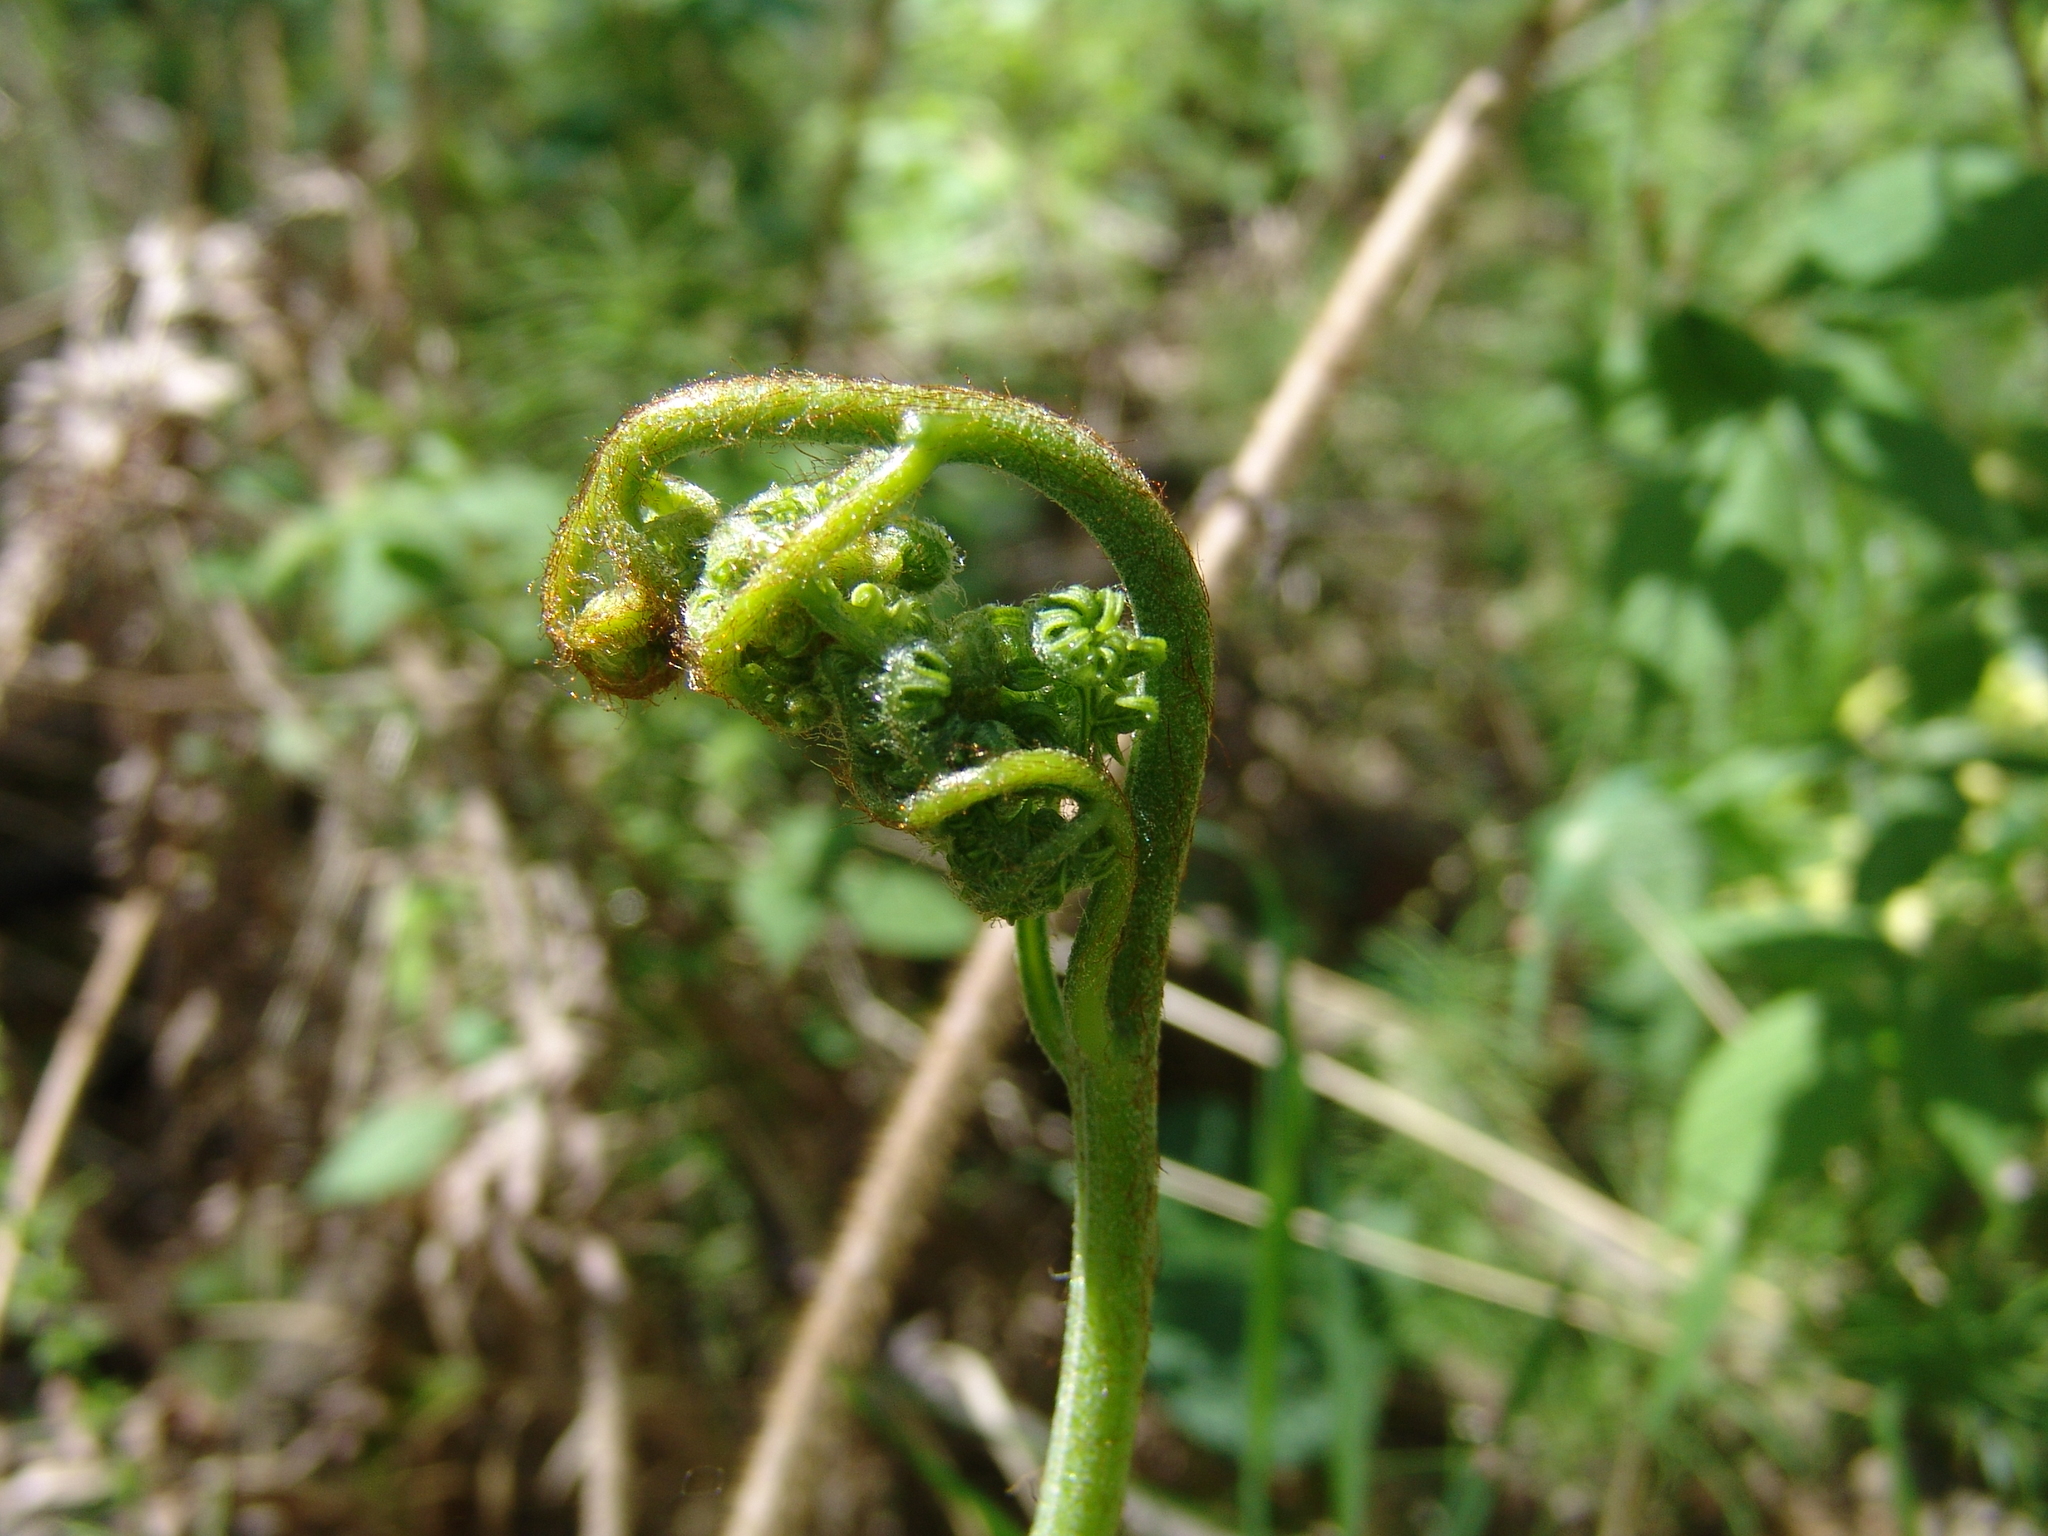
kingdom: Plantae
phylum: Tracheophyta
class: Polypodiopsida
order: Polypodiales
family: Dennstaedtiaceae
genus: Pteridium
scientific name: Pteridium aquilinum
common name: Bracken
